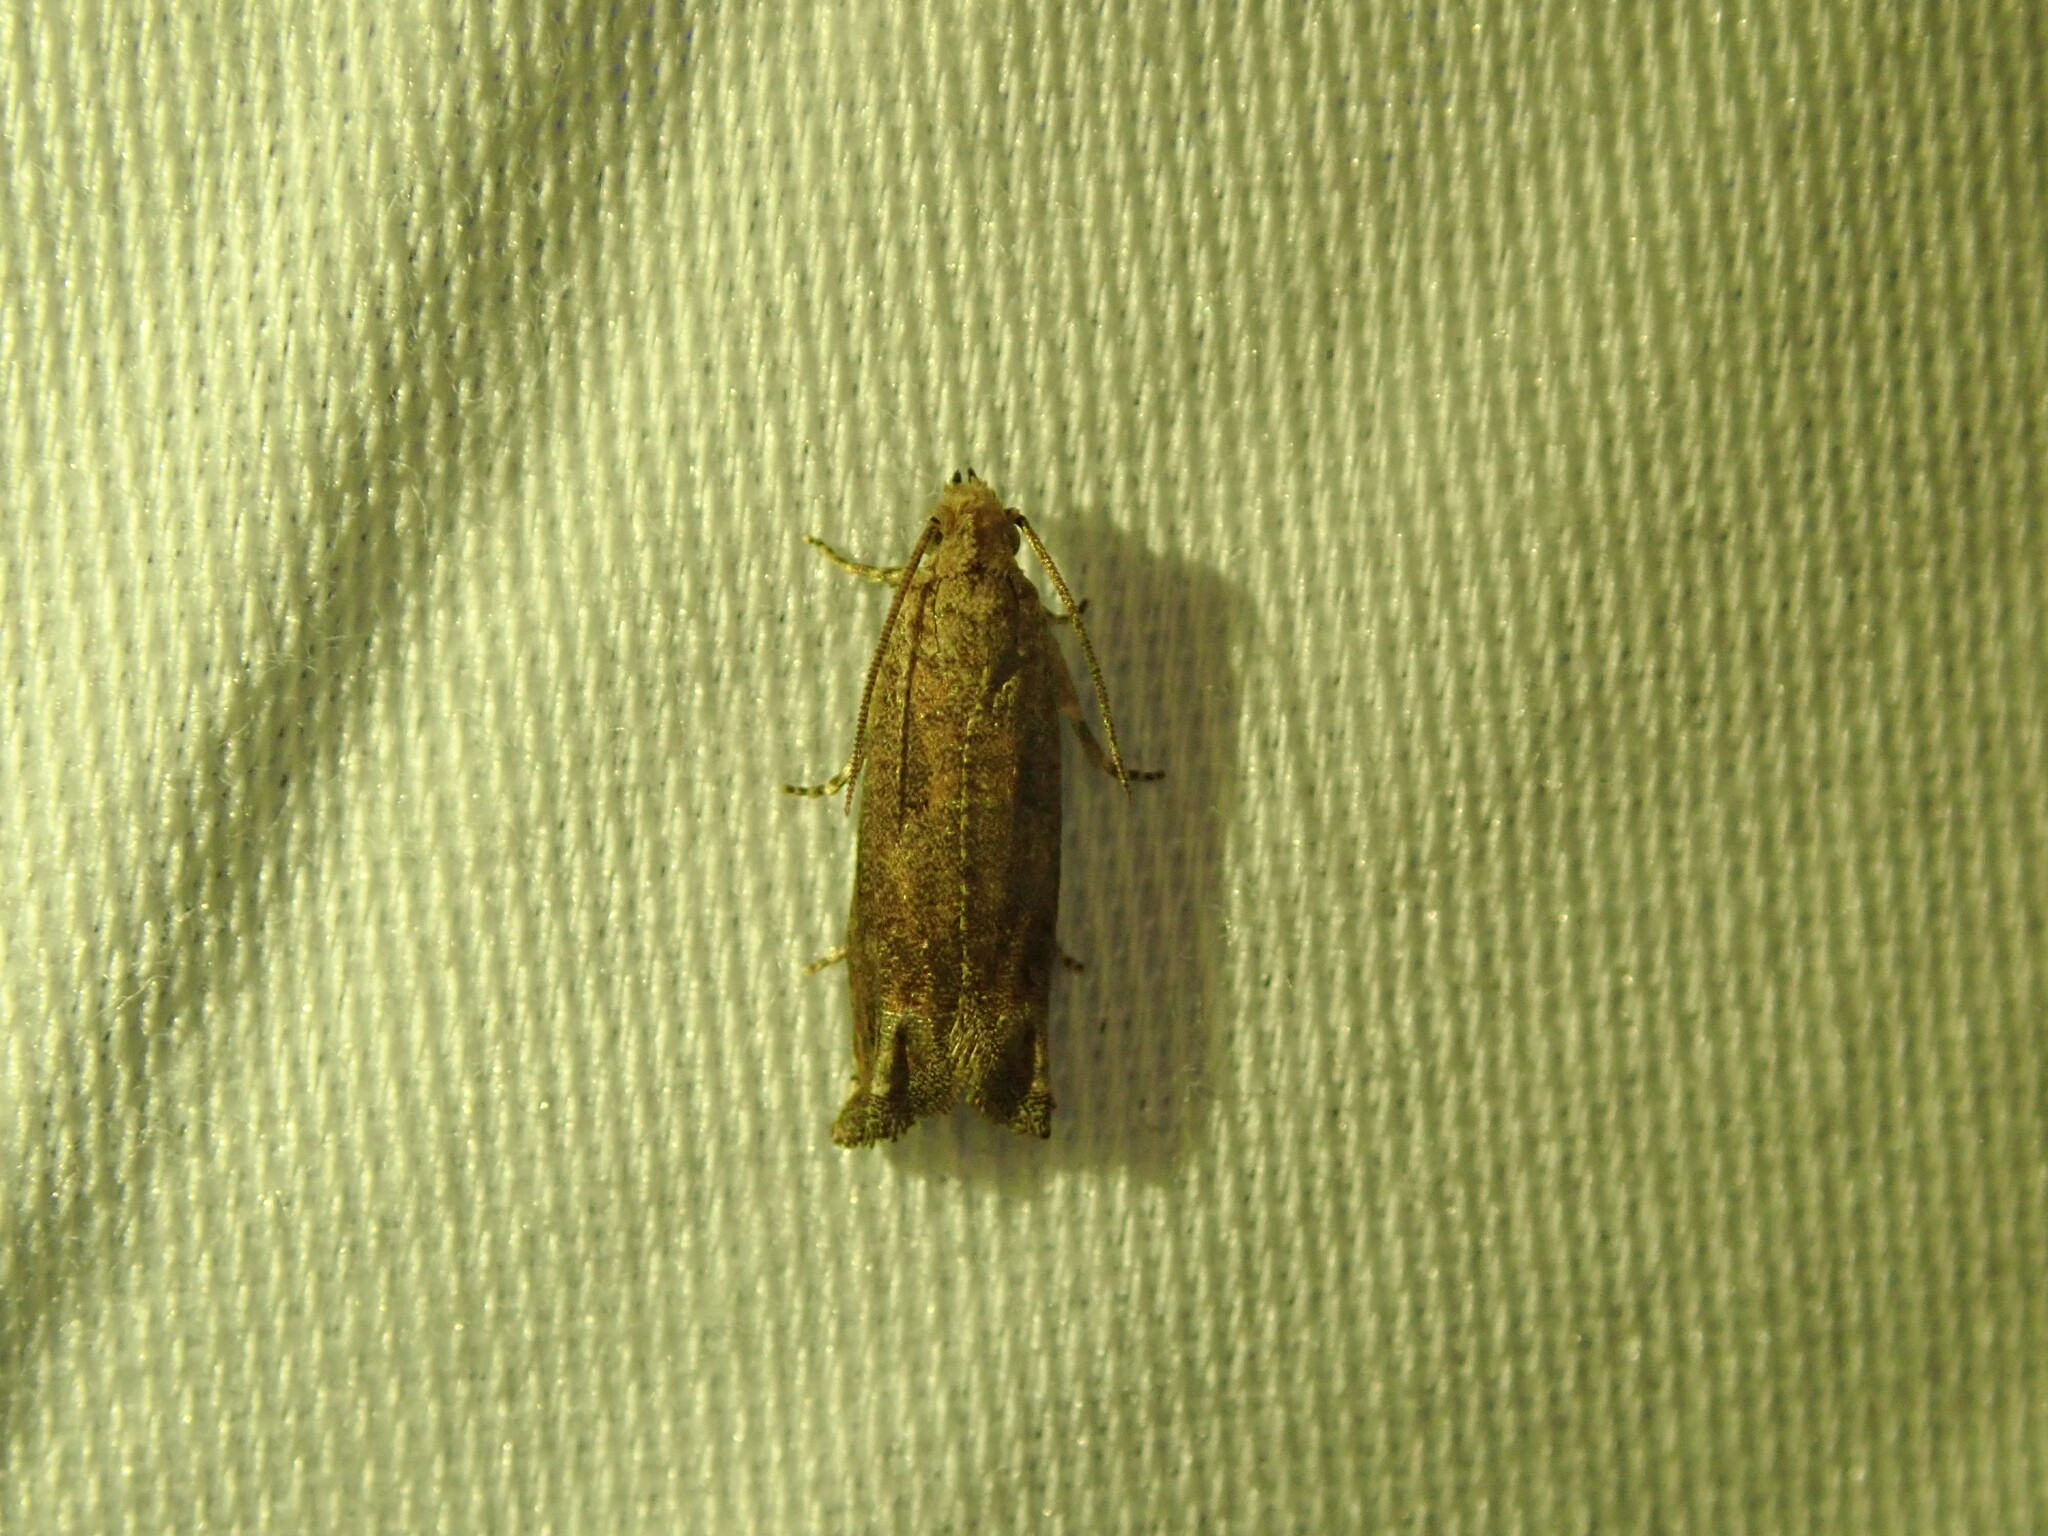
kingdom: Animalia
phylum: Arthropoda
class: Insecta
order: Lepidoptera
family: Tortricidae
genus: Epiblema
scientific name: Epiblema mandana
